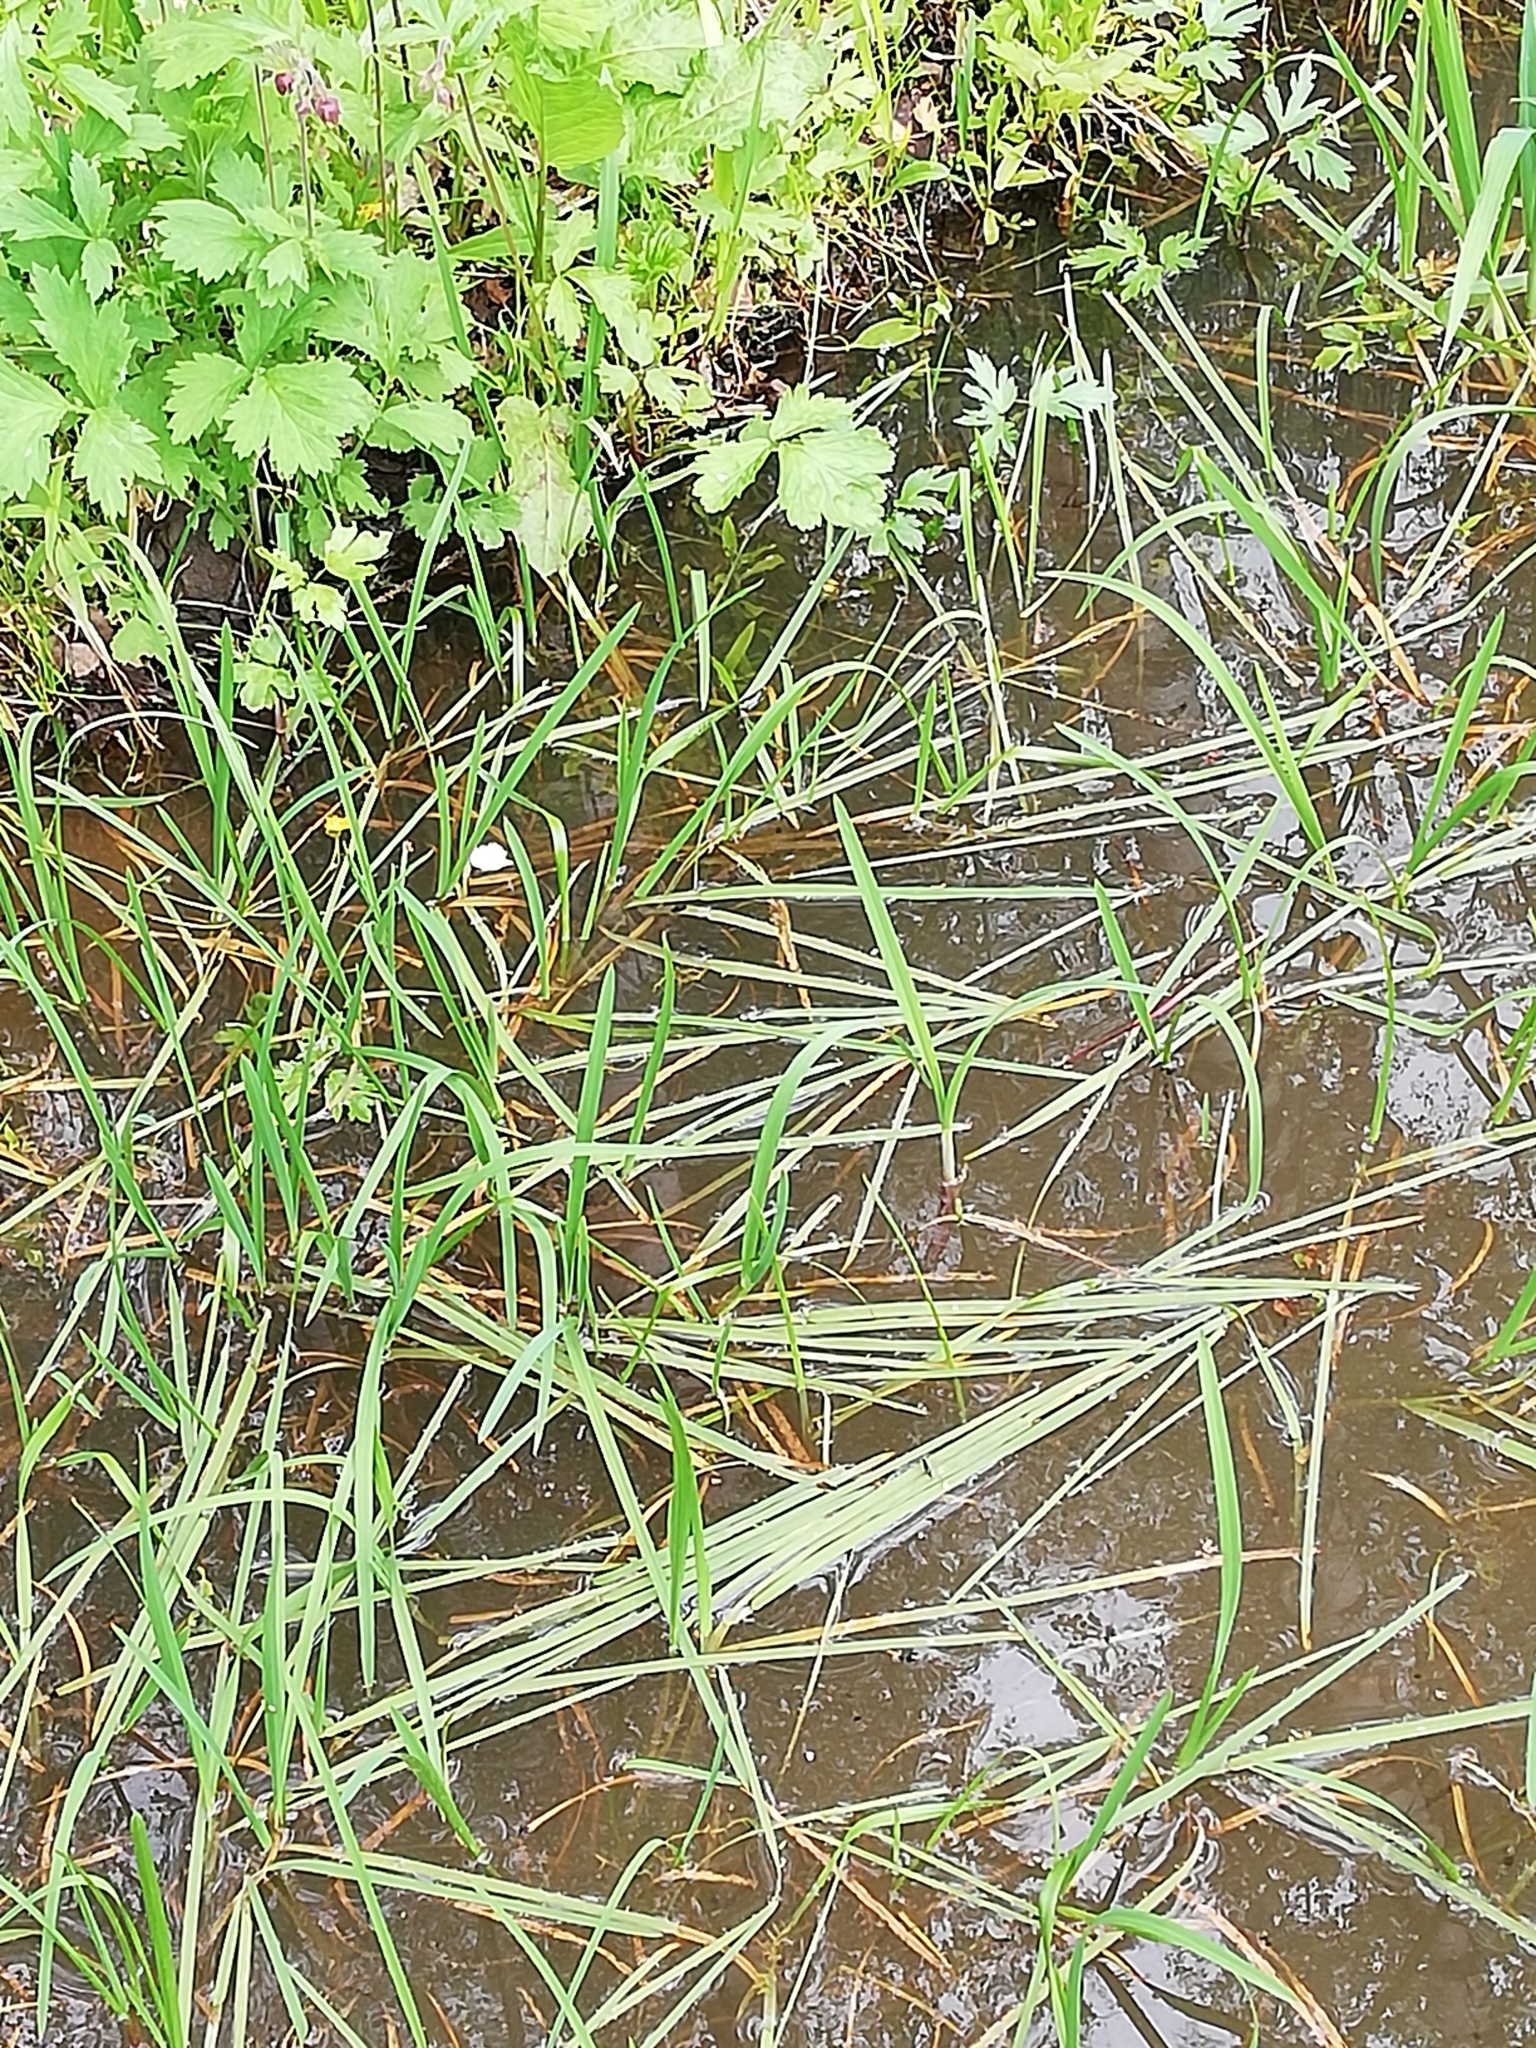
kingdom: Plantae
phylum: Tracheophyta
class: Liliopsida
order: Poales
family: Poaceae
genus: Glyceria
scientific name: Glyceria fluitans
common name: Floating sweet-grass
